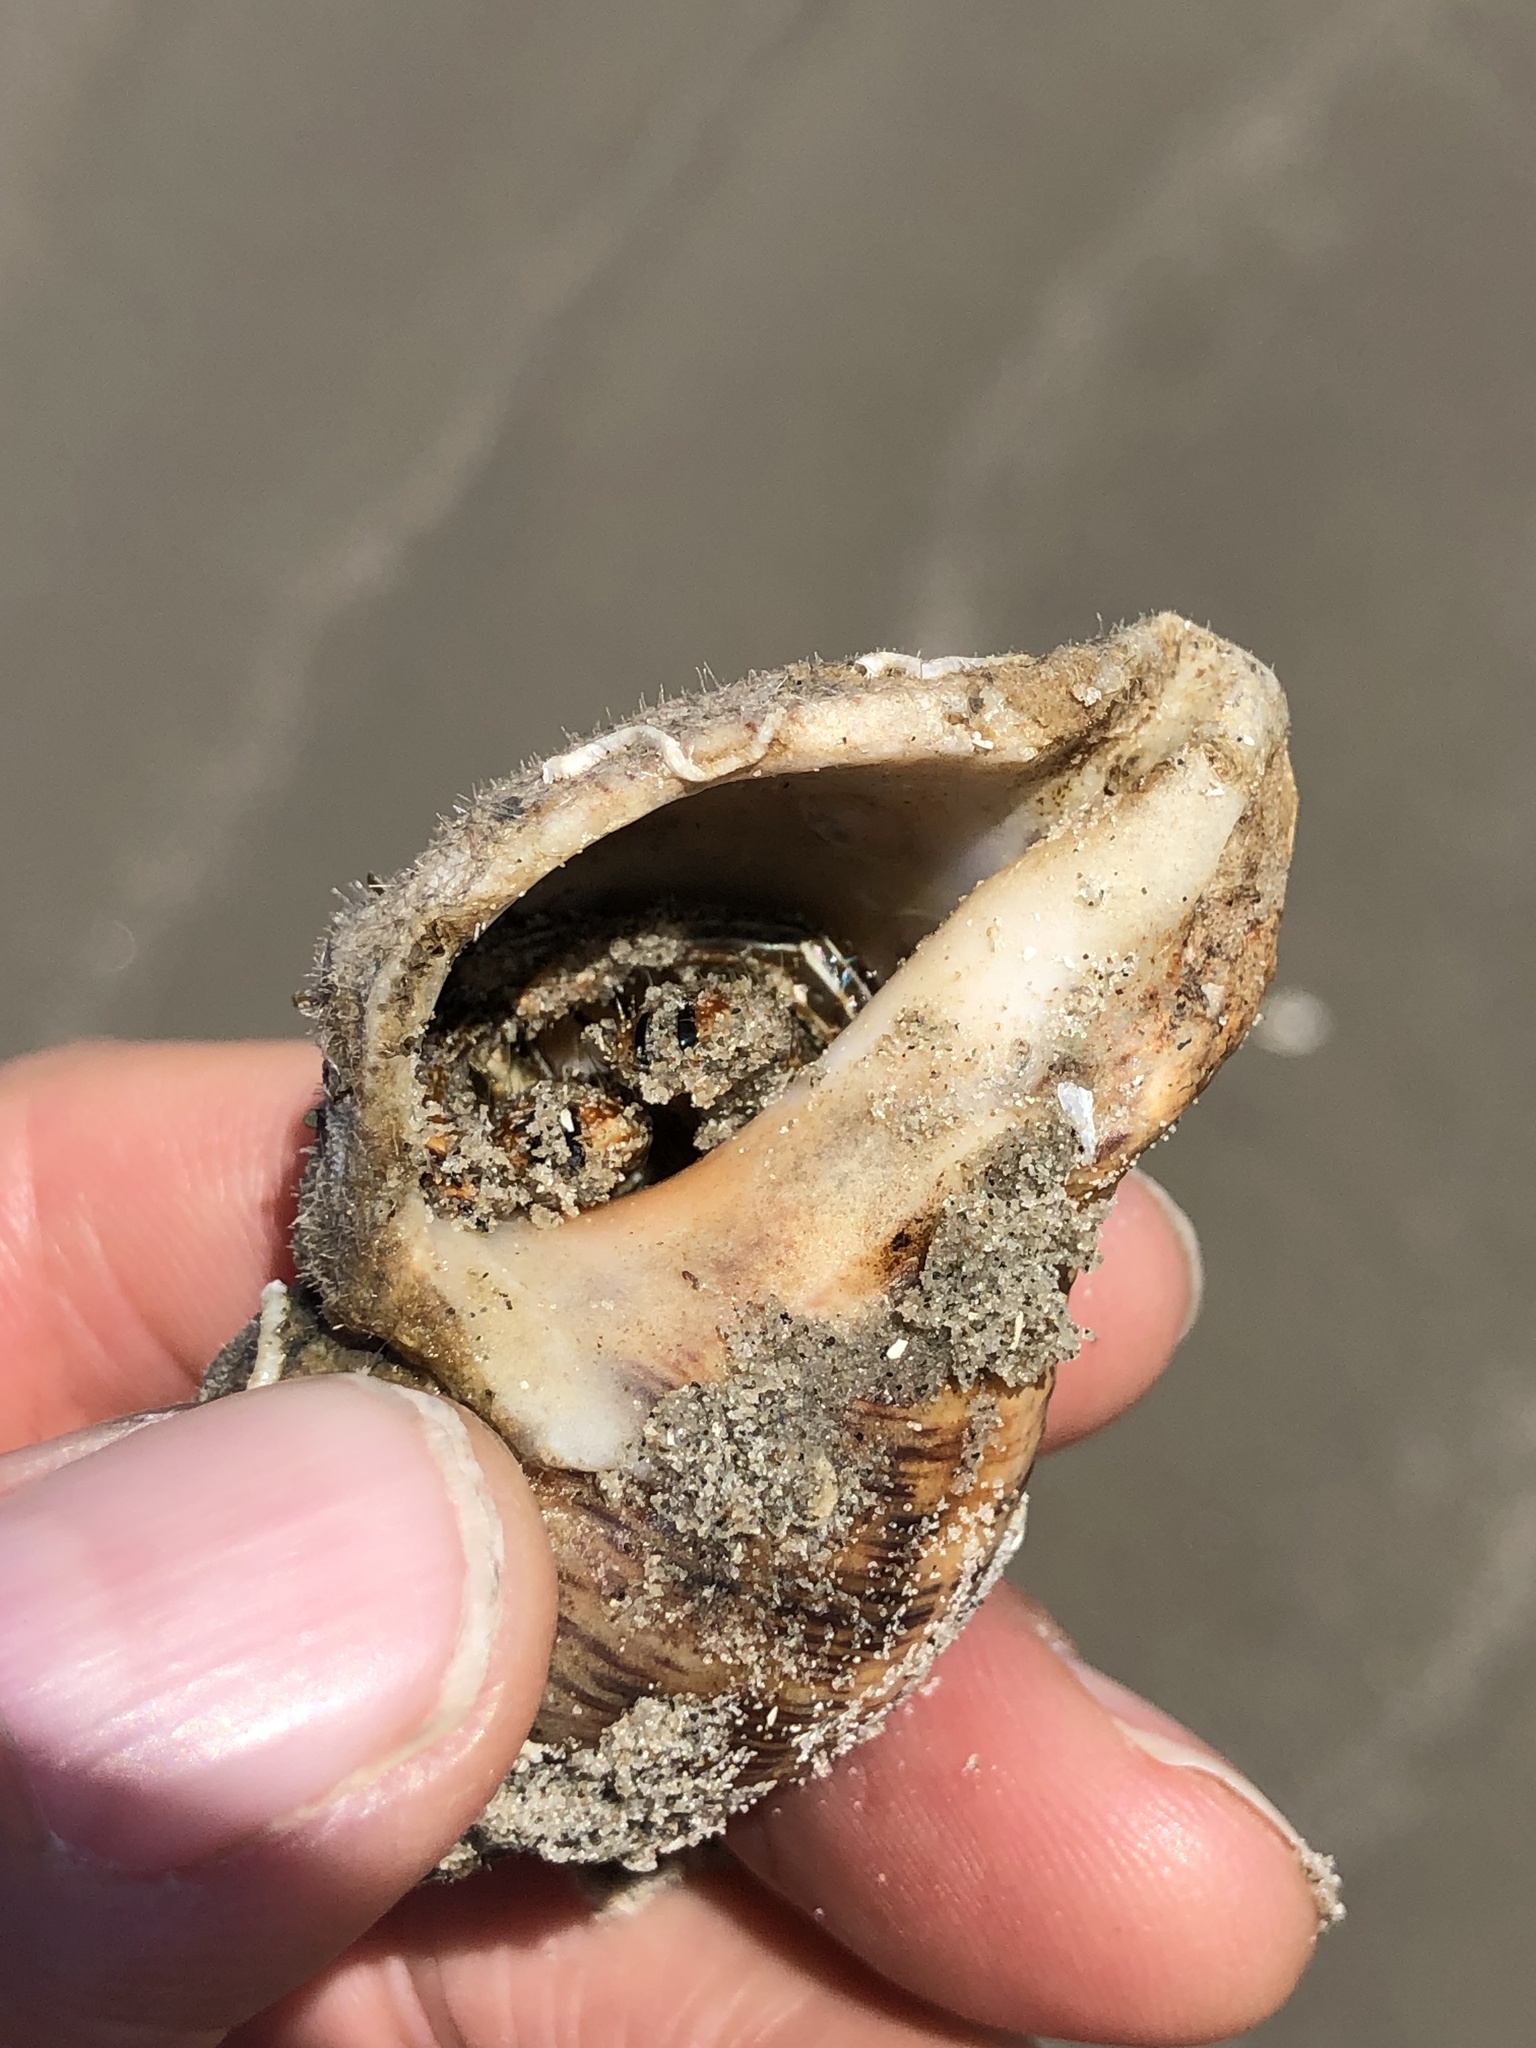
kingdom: Animalia
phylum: Arthropoda
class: Malacostraca
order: Decapoda
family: Diogenidae
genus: Clibanarius
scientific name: Clibanarius vittatus
